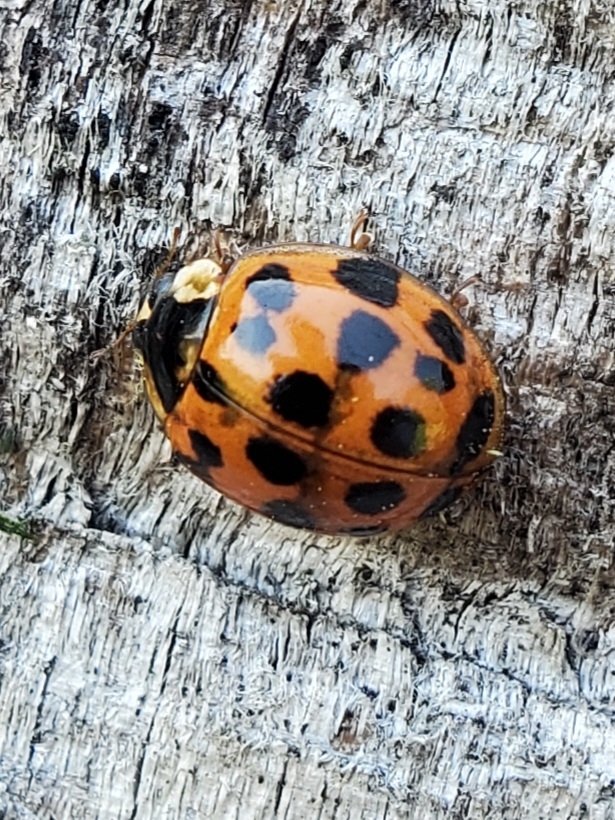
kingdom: Animalia
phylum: Arthropoda
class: Insecta
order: Coleoptera
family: Coccinellidae
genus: Harmonia
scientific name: Harmonia axyridis
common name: Harlequin ladybird
